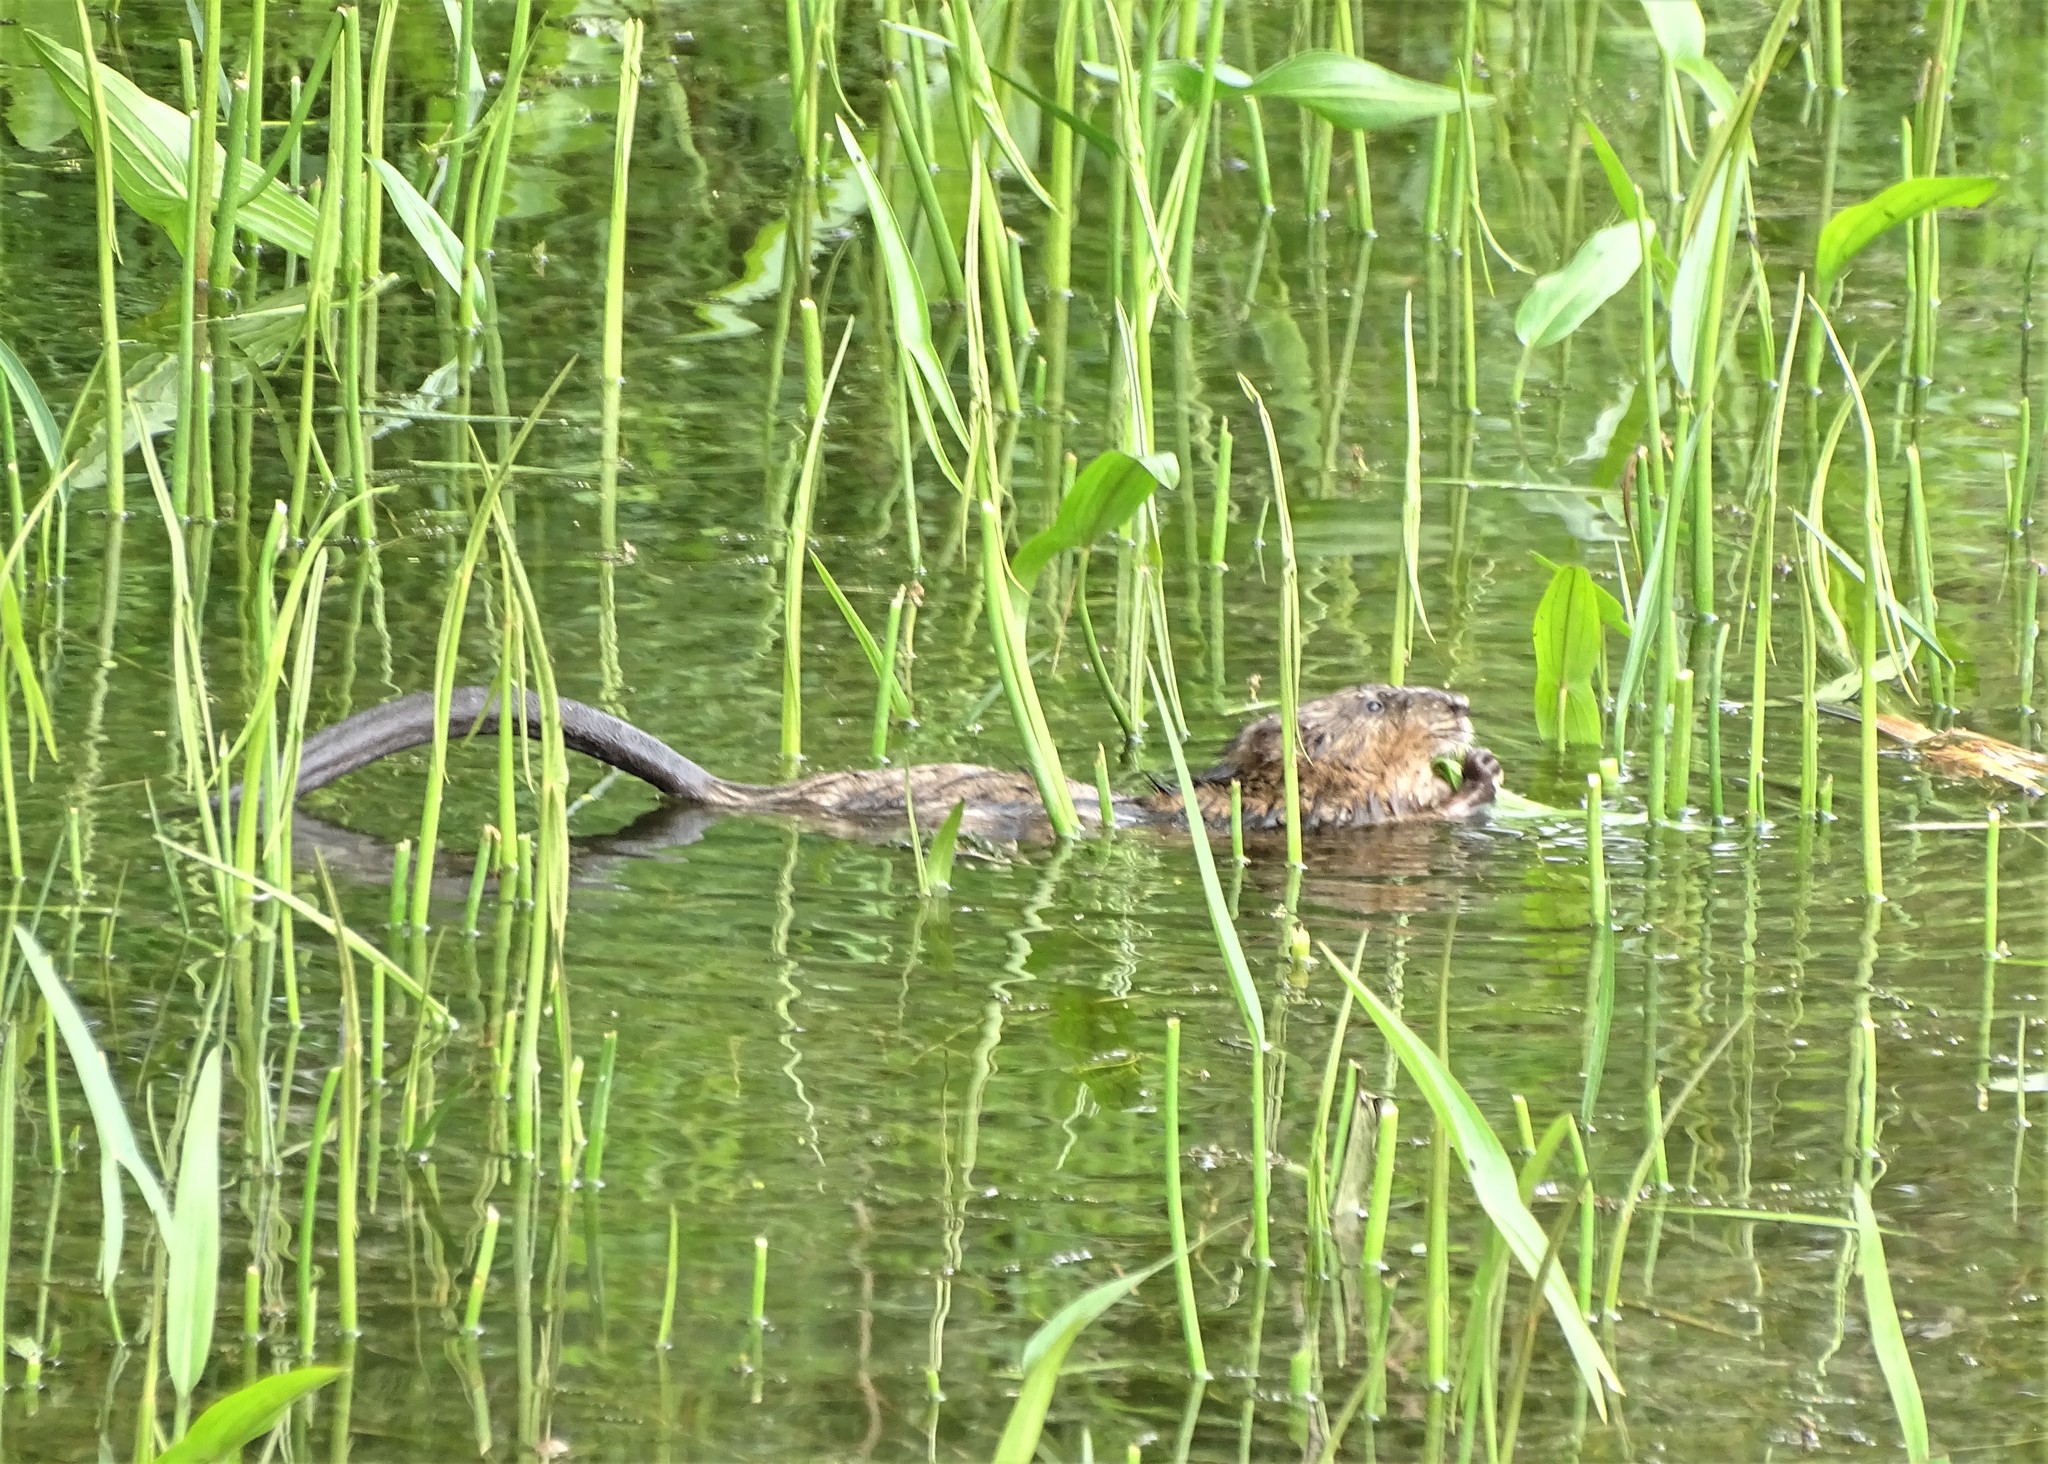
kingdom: Animalia
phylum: Chordata
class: Mammalia
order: Rodentia
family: Cricetidae
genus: Ondatra
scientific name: Ondatra zibethicus
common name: Muskrat
